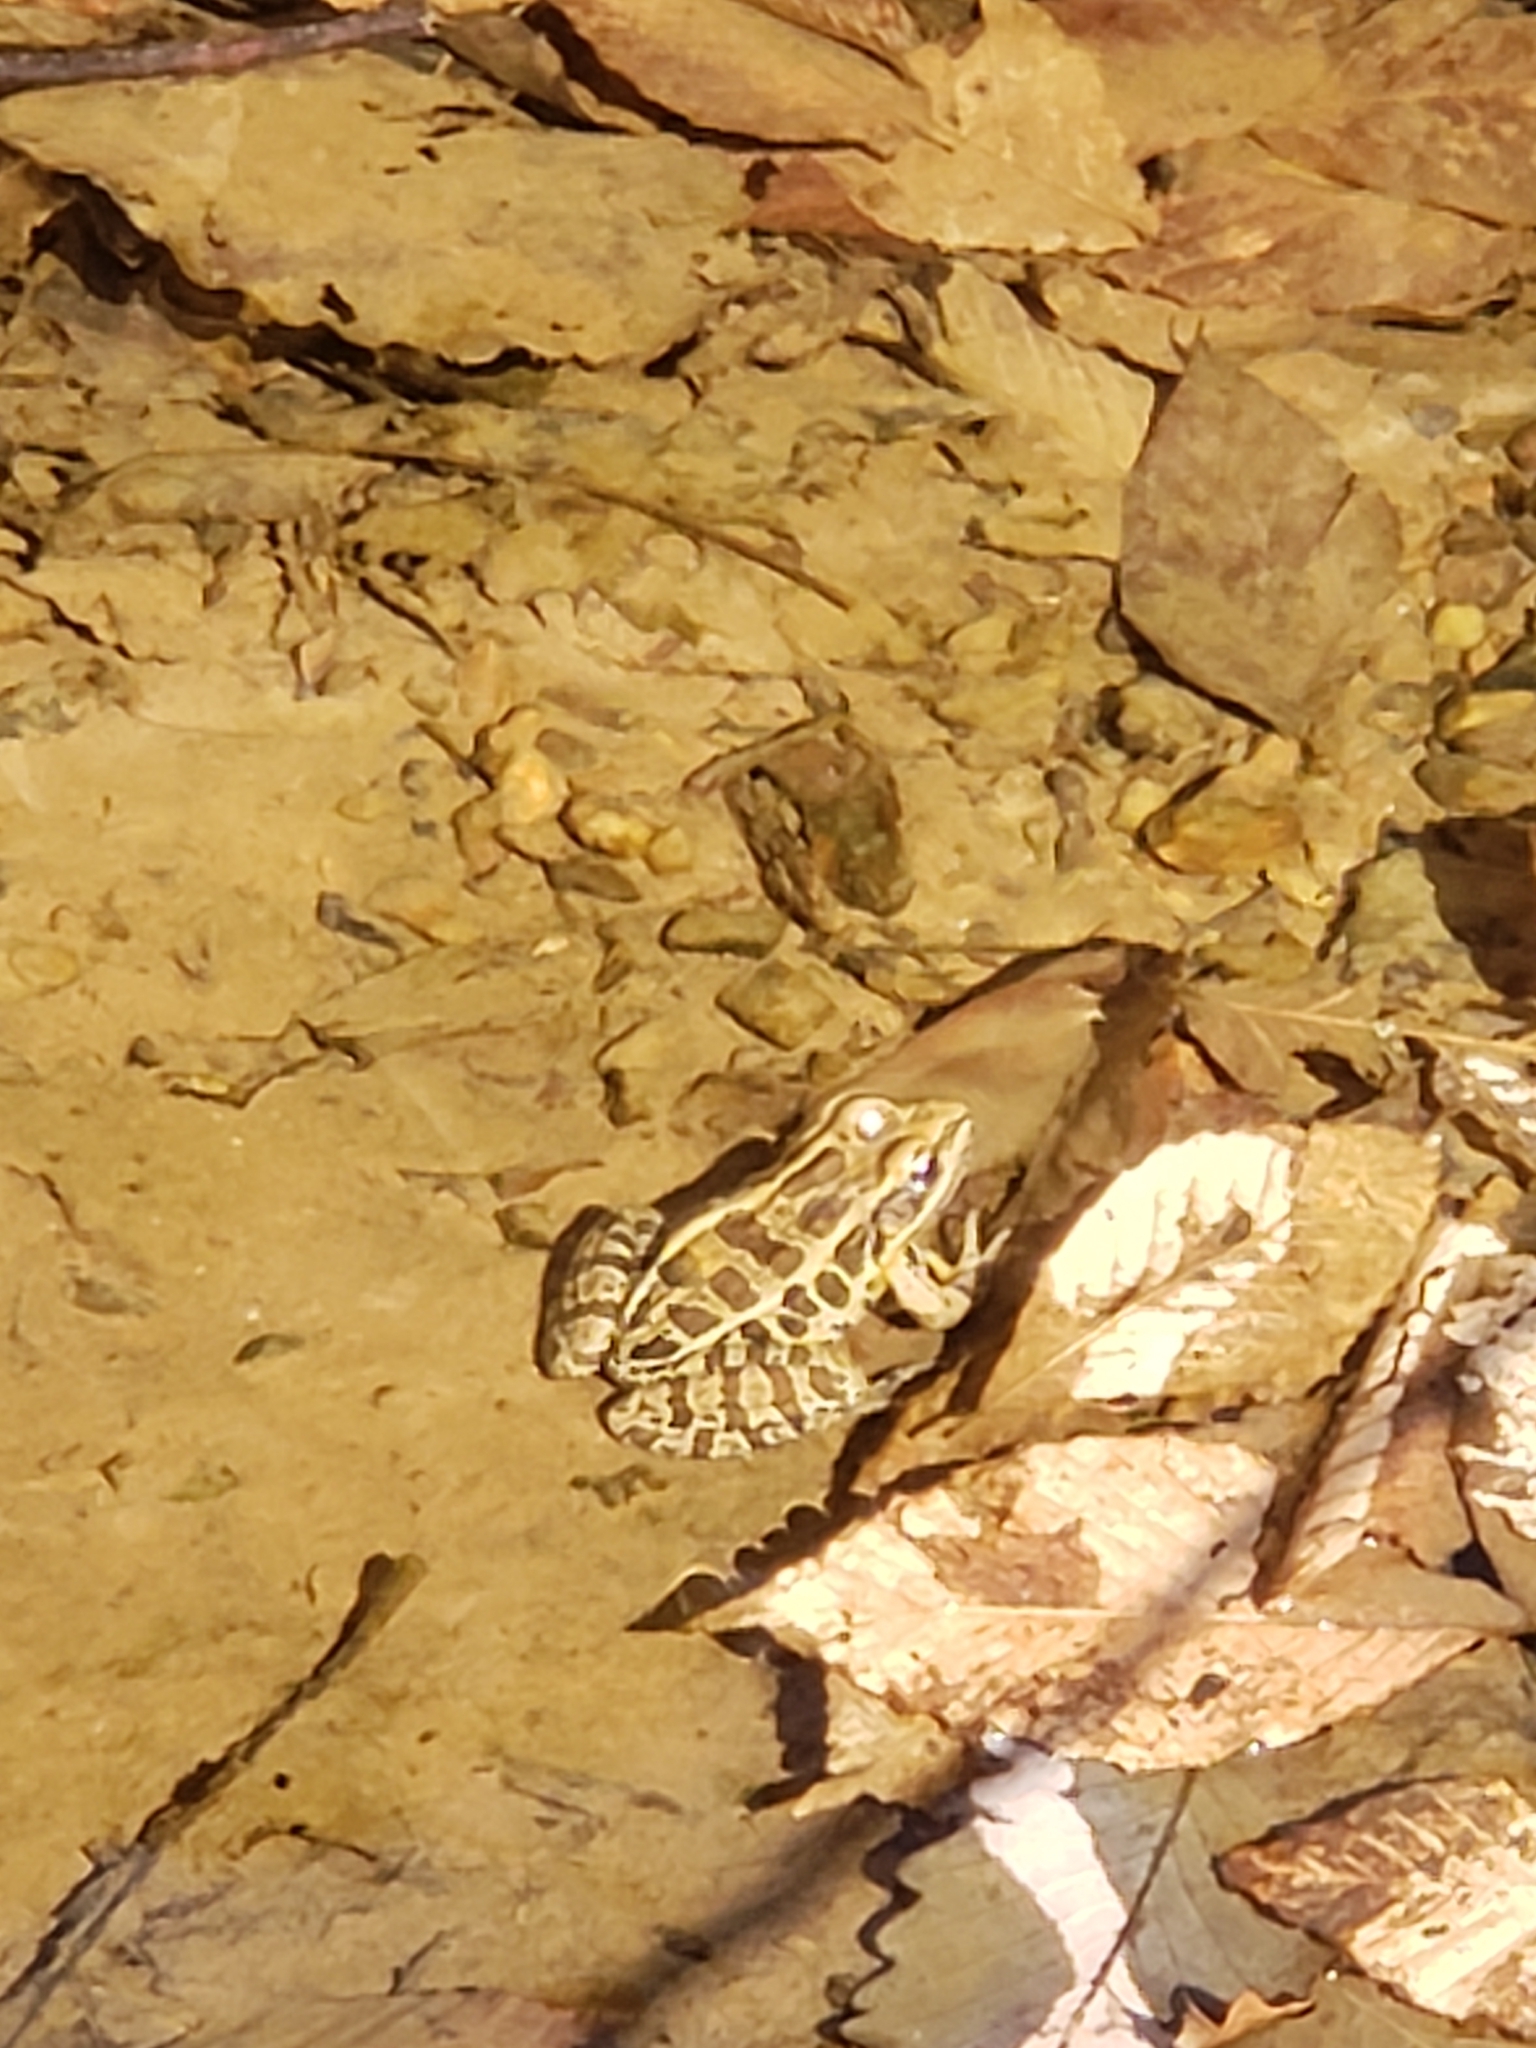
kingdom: Animalia
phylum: Chordata
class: Amphibia
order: Anura
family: Ranidae
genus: Lithobates
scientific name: Lithobates palustris
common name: Pickerel frog
